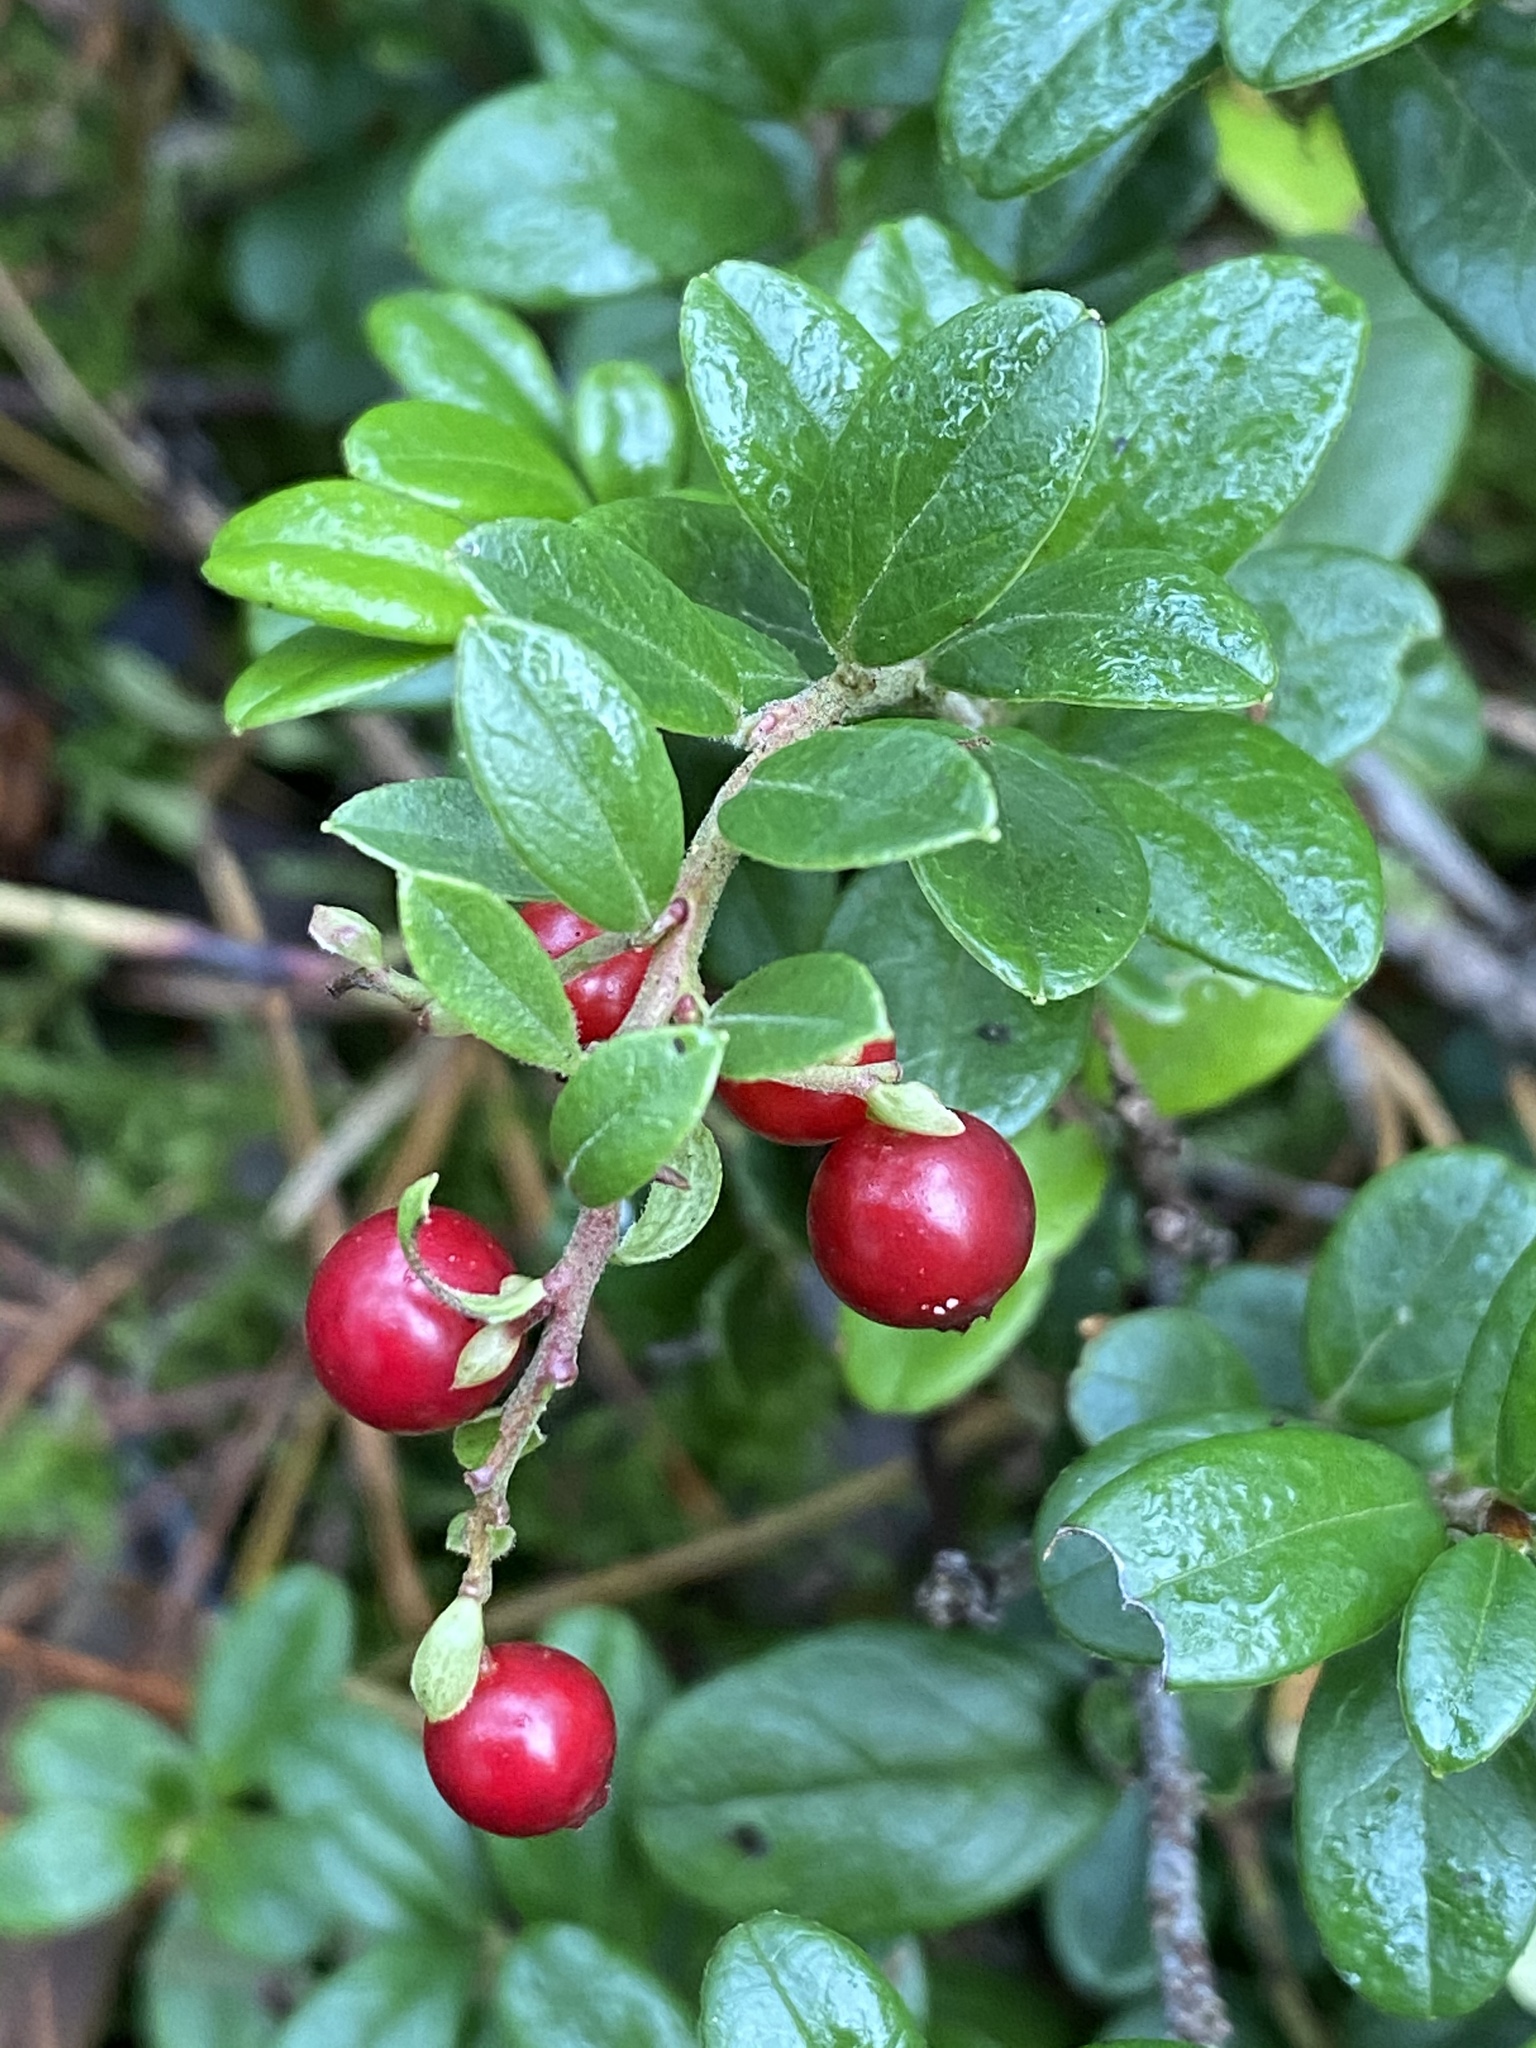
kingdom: Plantae
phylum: Tracheophyta
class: Magnoliopsida
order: Ericales
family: Ericaceae
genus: Vaccinium
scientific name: Vaccinium vitis-idaea
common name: Cowberry
